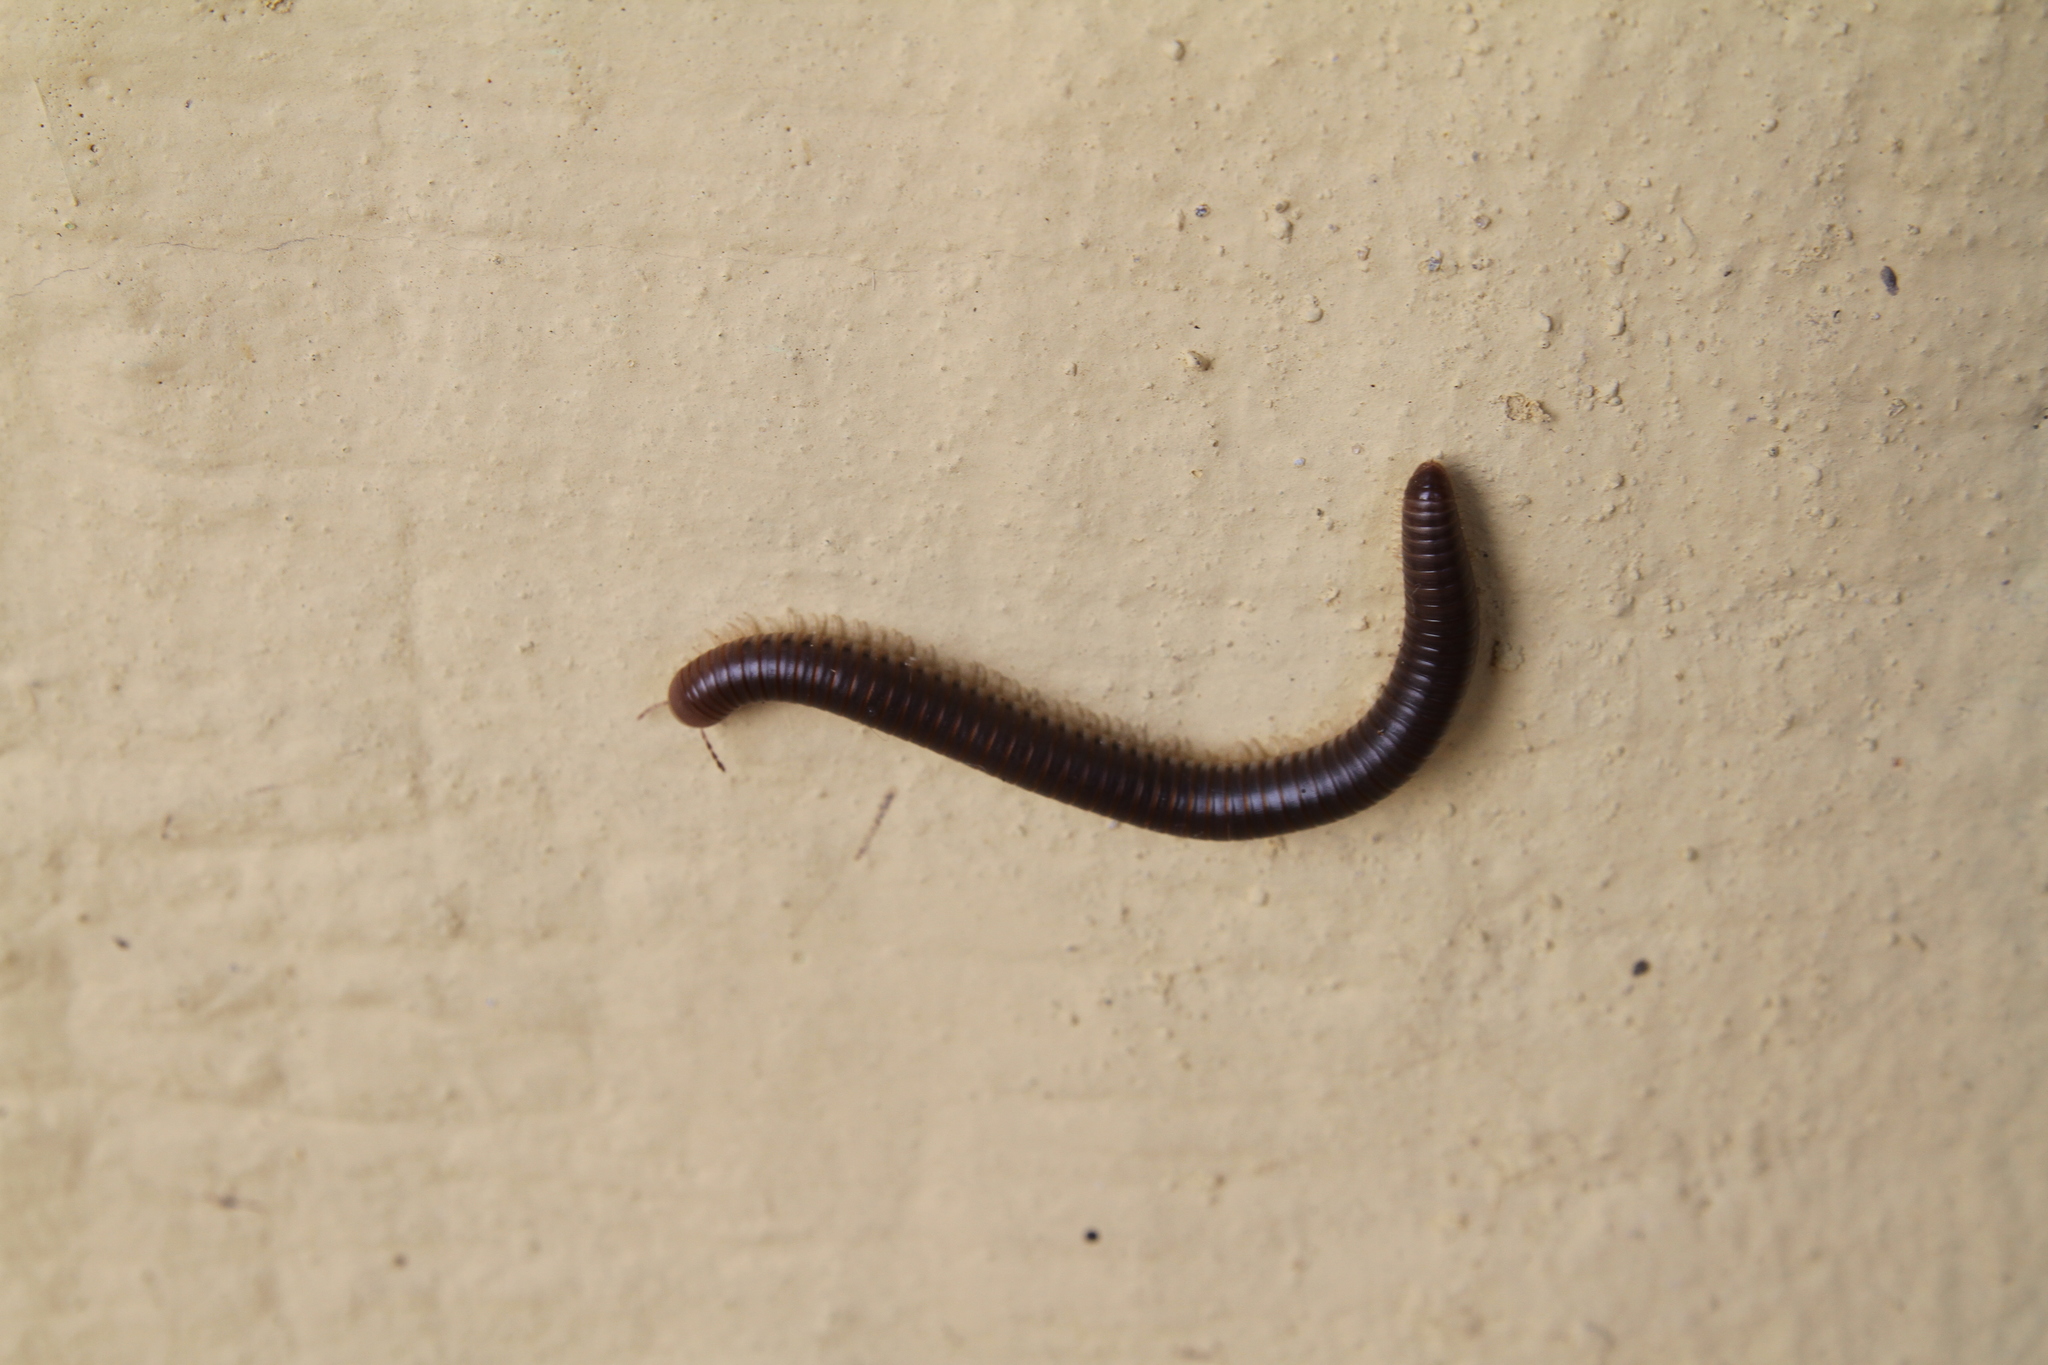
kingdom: Animalia
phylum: Arthropoda
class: Diplopoda
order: Julida
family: Julidae
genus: Pachyiulus
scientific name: Pachyiulus flavipes
